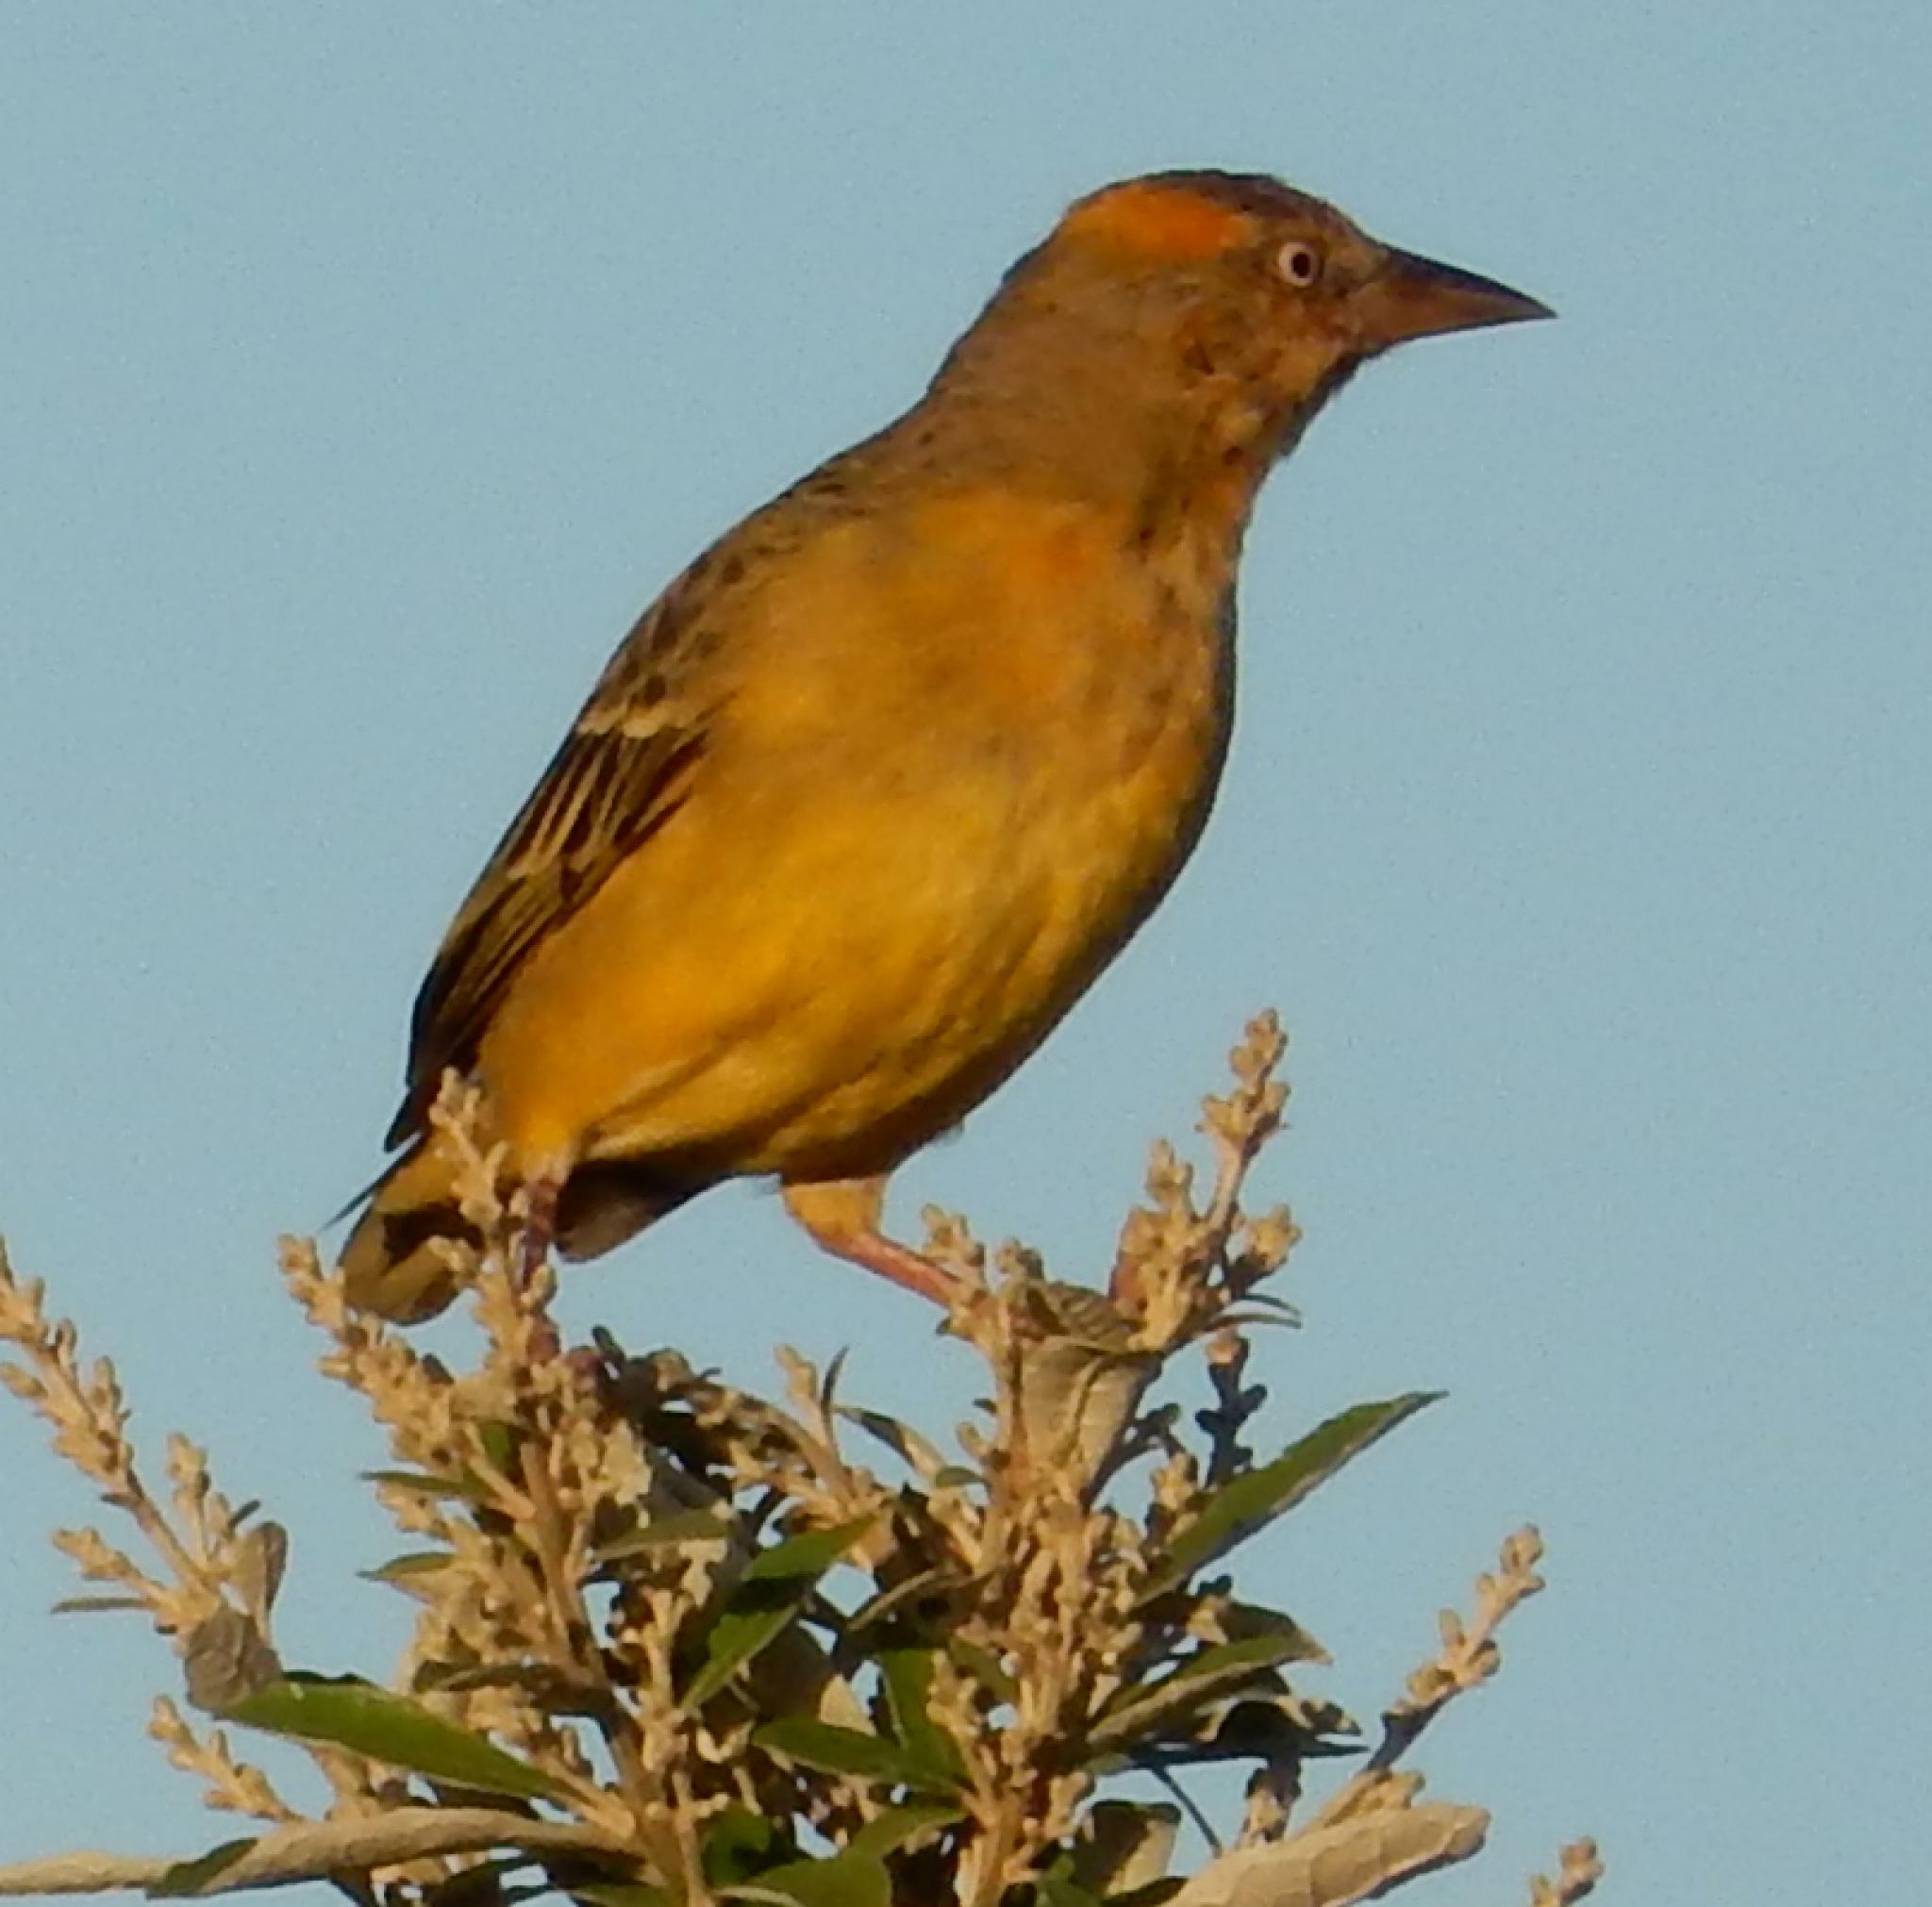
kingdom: Animalia
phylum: Chordata
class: Aves
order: Passeriformes
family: Ploceidae
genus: Ploceus
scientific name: Ploceus capensis
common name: Cape weaver
